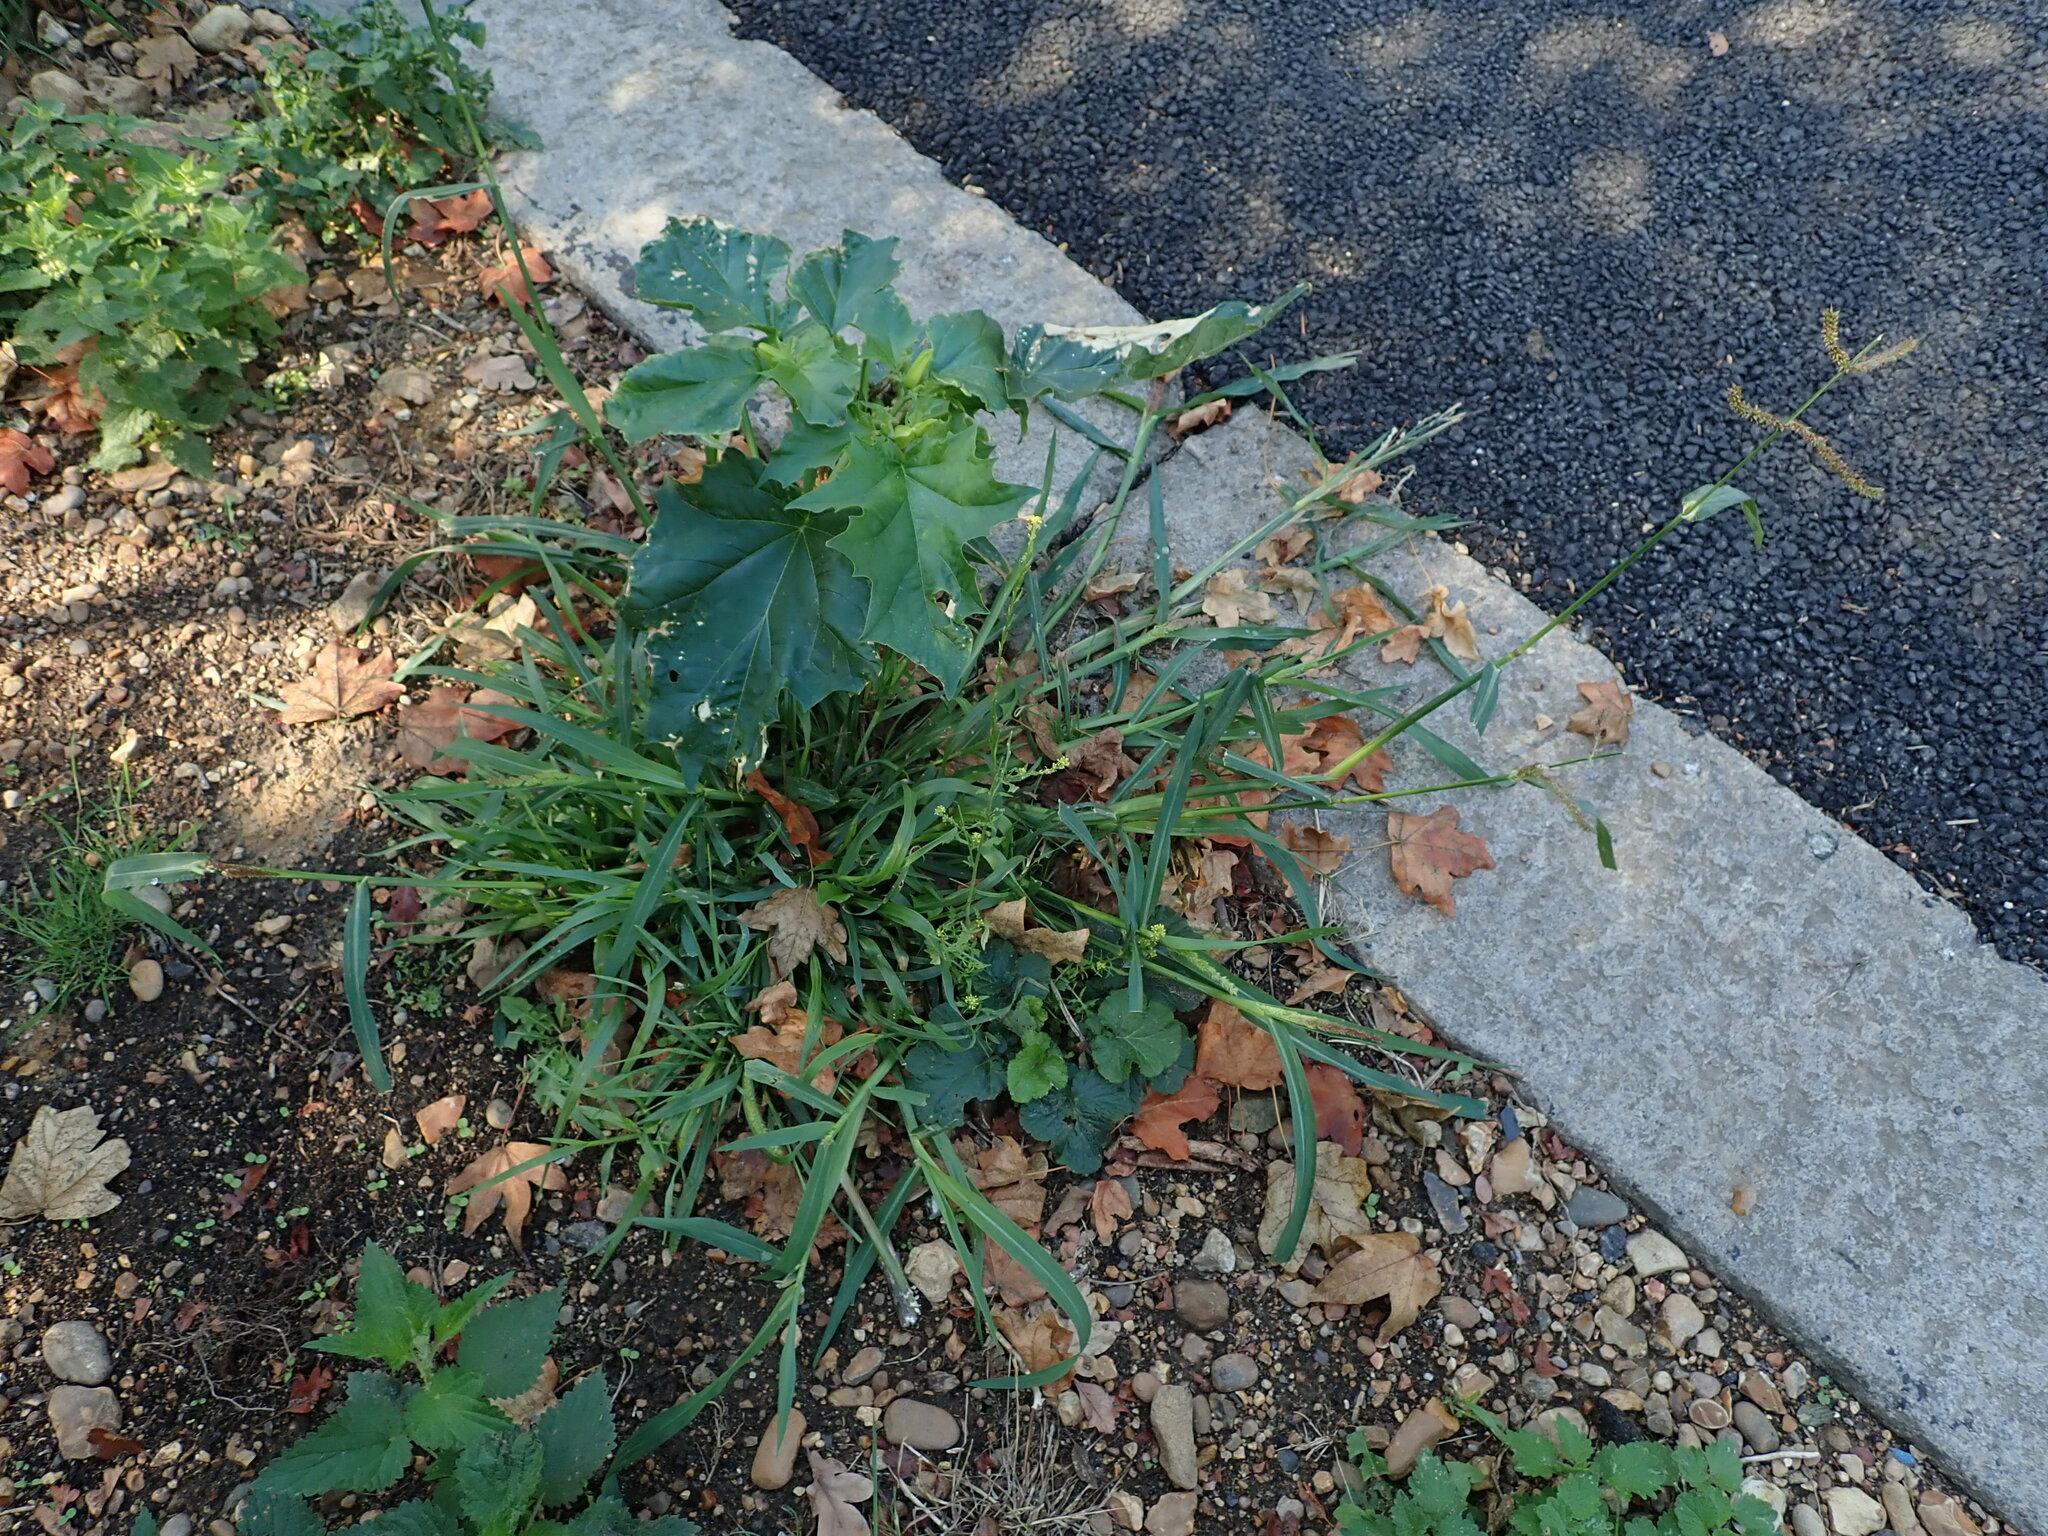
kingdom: Plantae
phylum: Tracheophyta
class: Liliopsida
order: Poales
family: Poaceae
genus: Echinochloa
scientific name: Echinochloa crus-galli
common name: Cockspur
